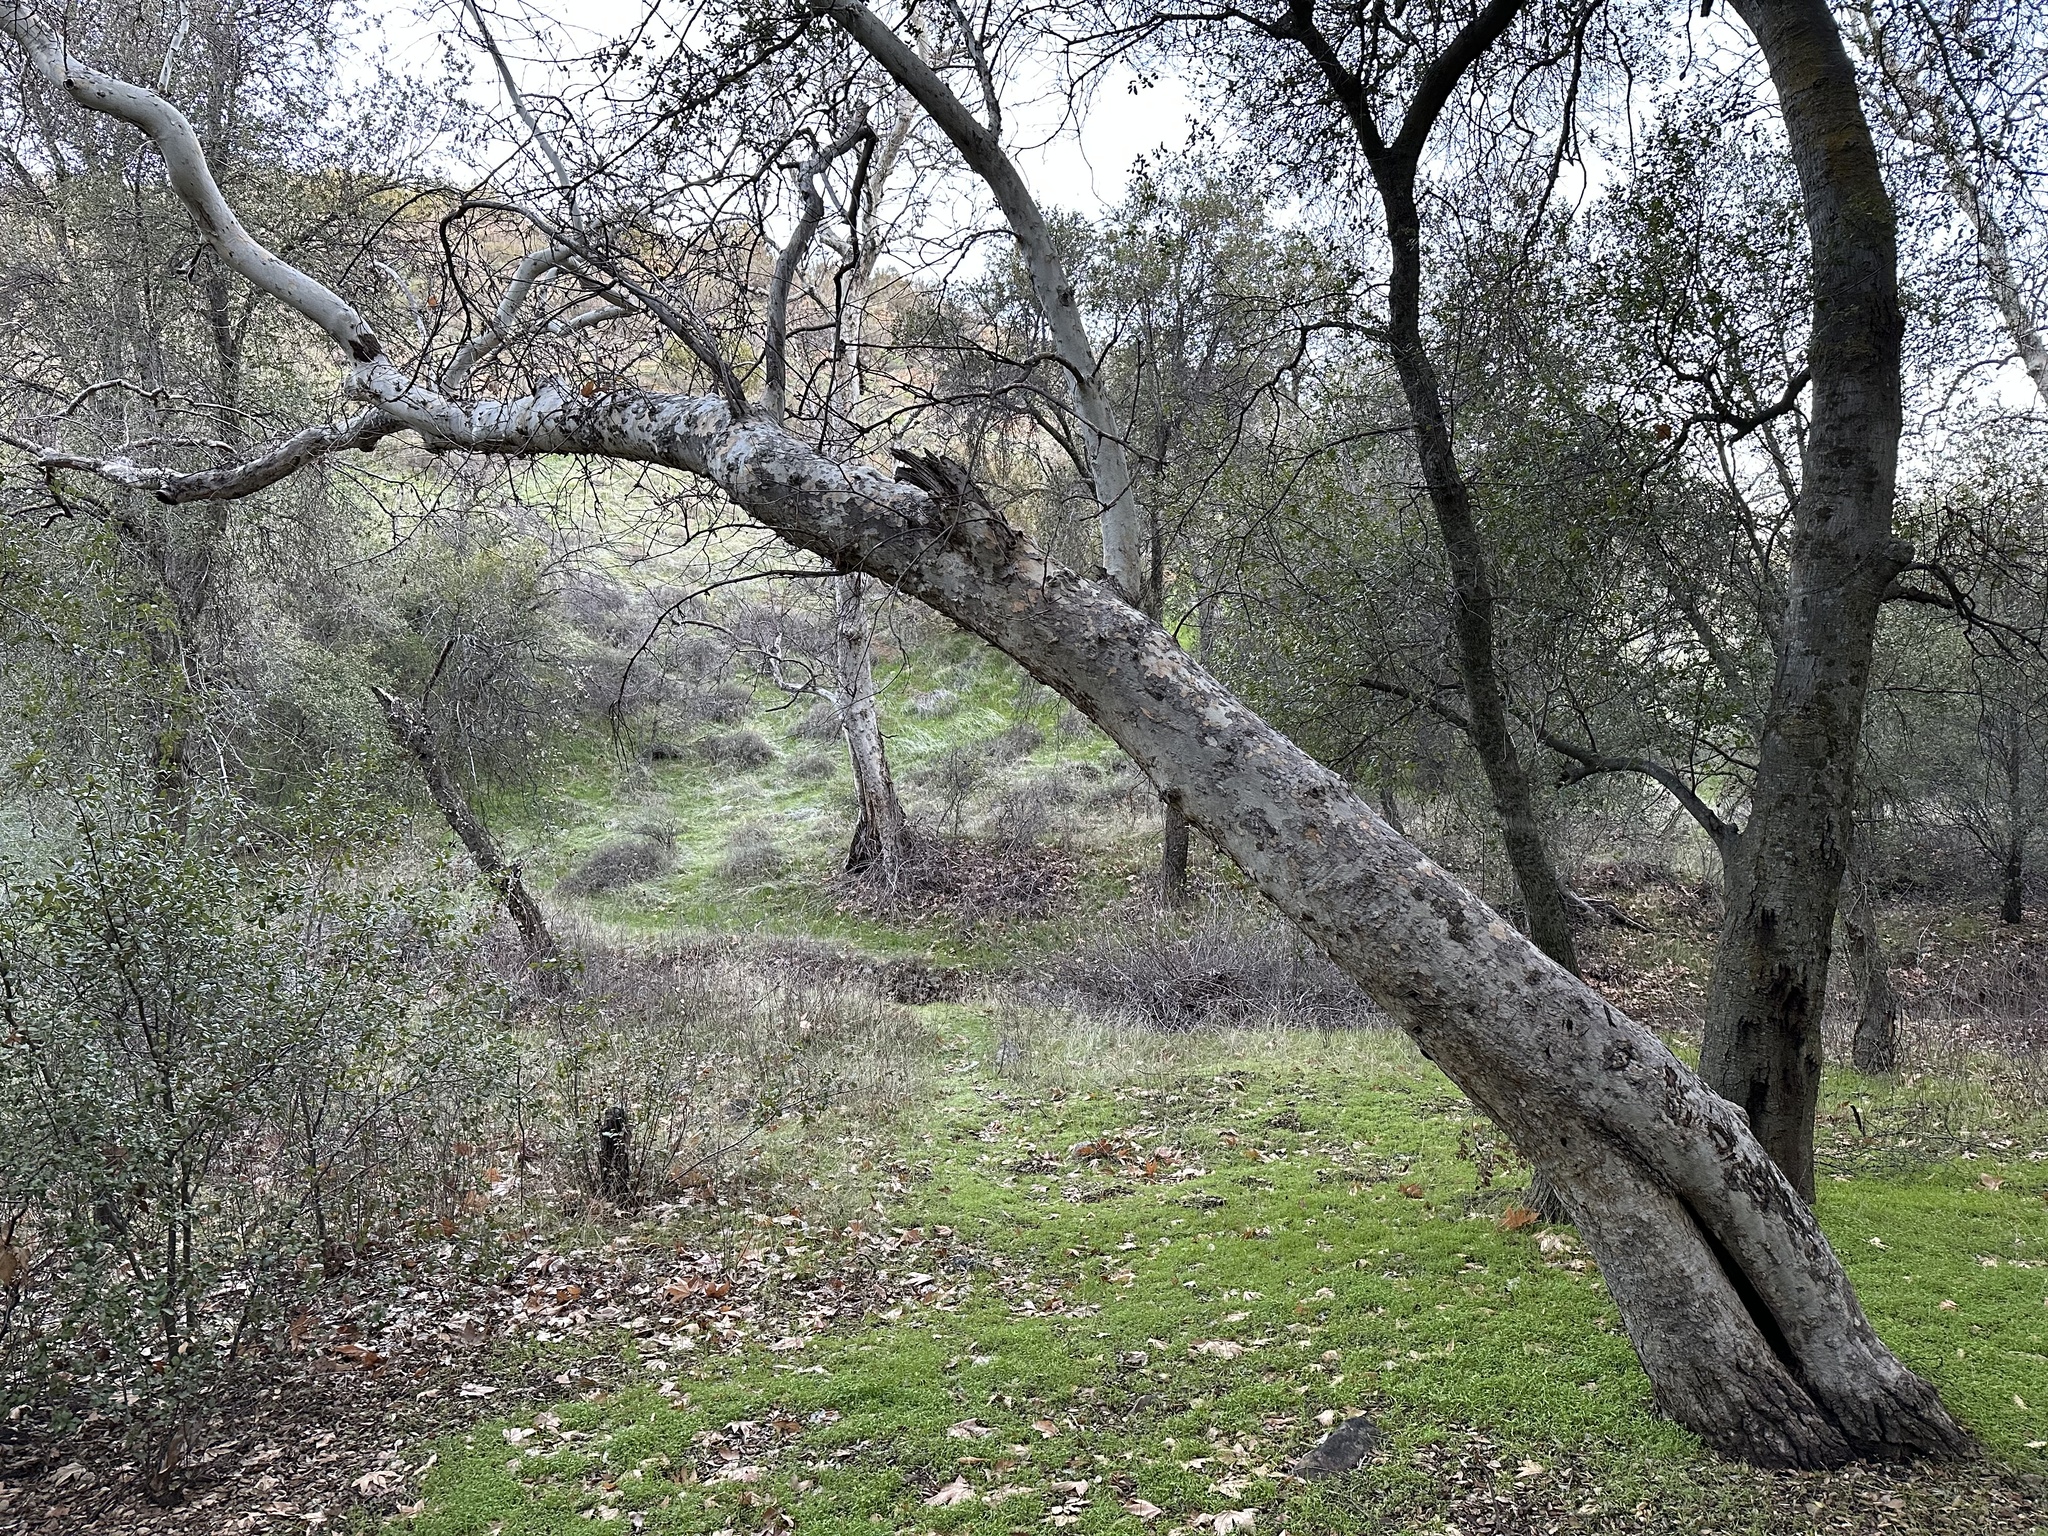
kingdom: Plantae
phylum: Tracheophyta
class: Magnoliopsida
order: Proteales
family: Platanaceae
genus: Platanus
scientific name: Platanus racemosa
